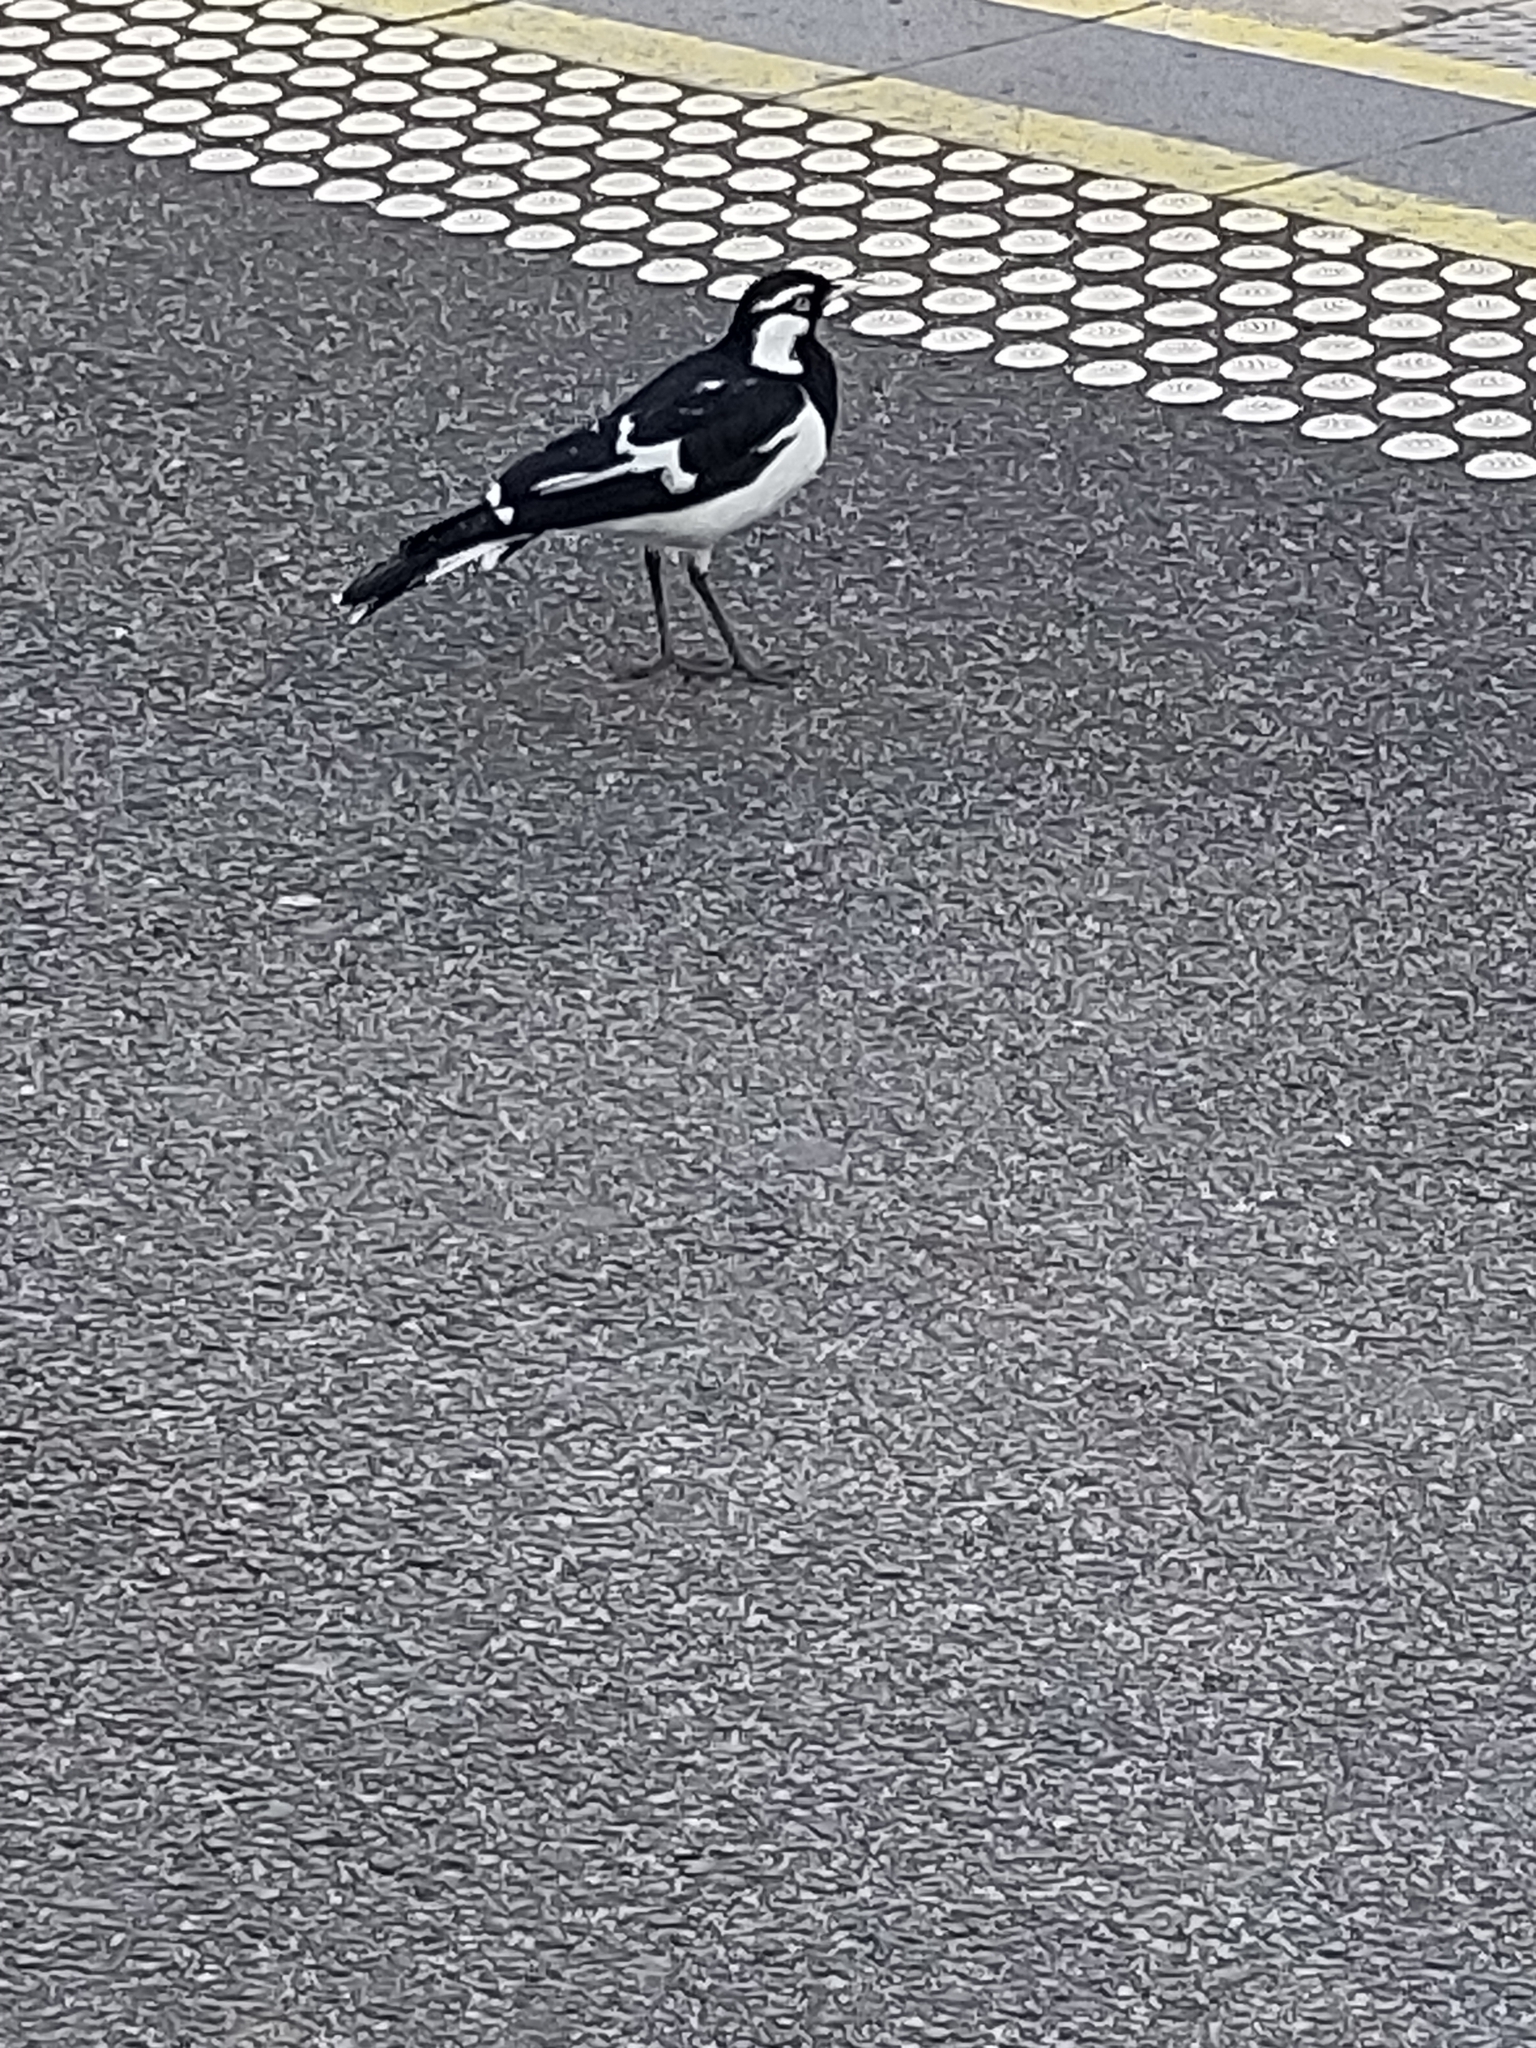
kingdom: Animalia
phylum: Chordata
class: Aves
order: Passeriformes
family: Monarchidae
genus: Grallina
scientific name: Grallina cyanoleuca
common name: Magpie-lark
